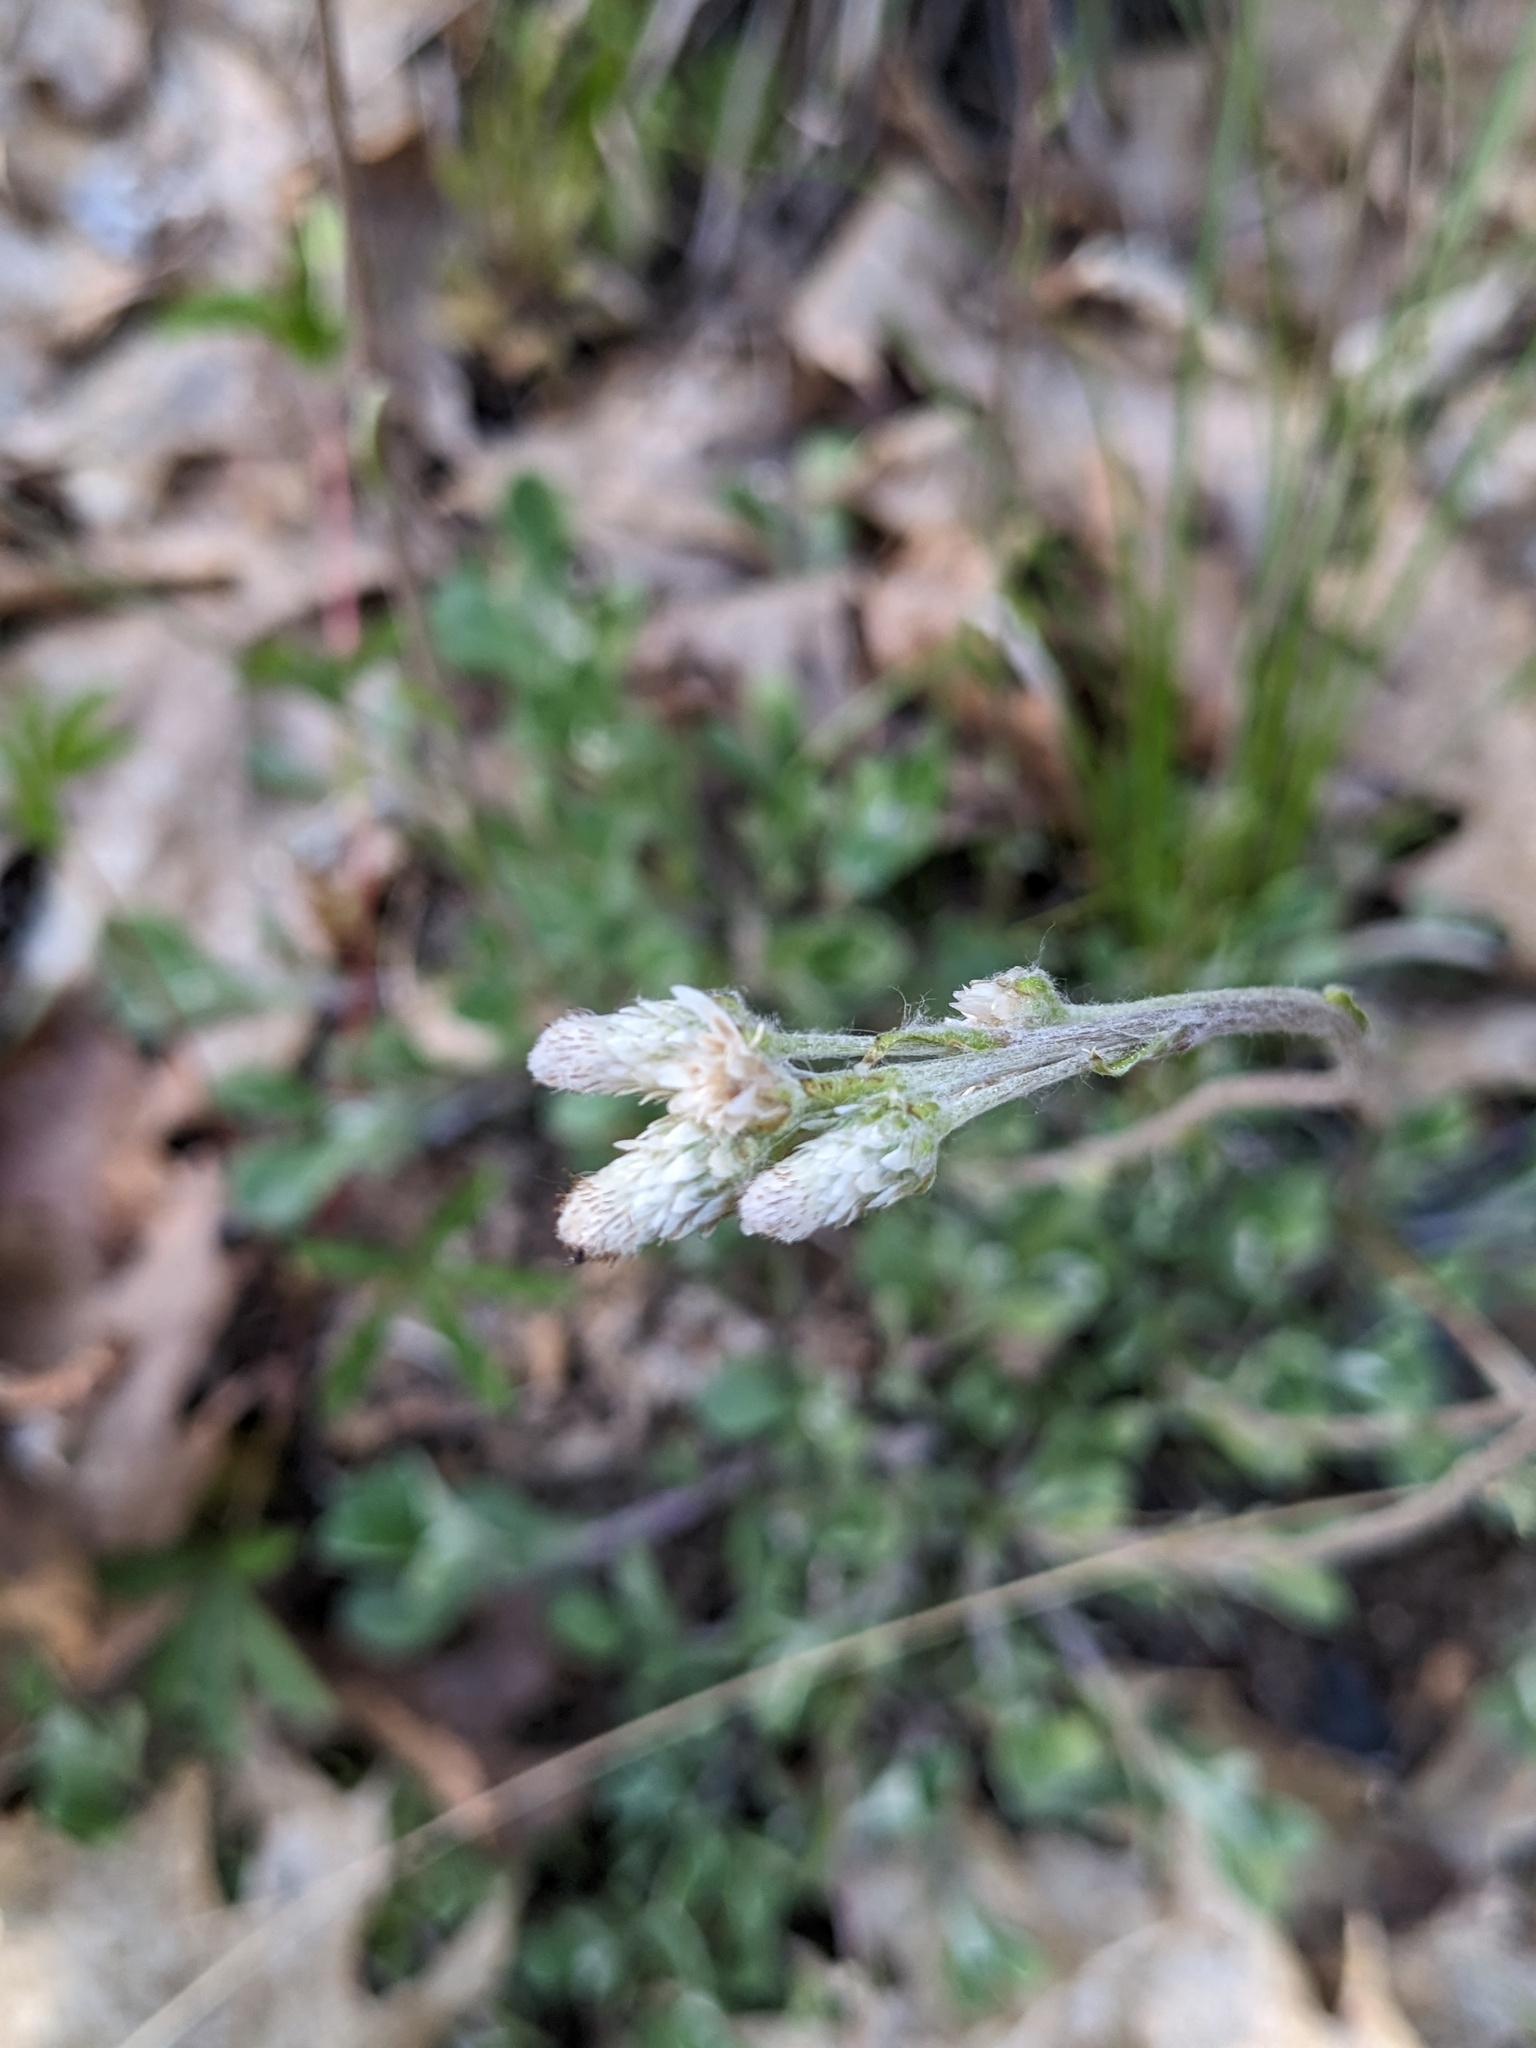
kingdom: Plantae
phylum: Tracheophyta
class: Magnoliopsida
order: Asterales
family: Asteraceae
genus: Antennaria
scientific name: Antennaria howellii
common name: Howell's pussytoes
